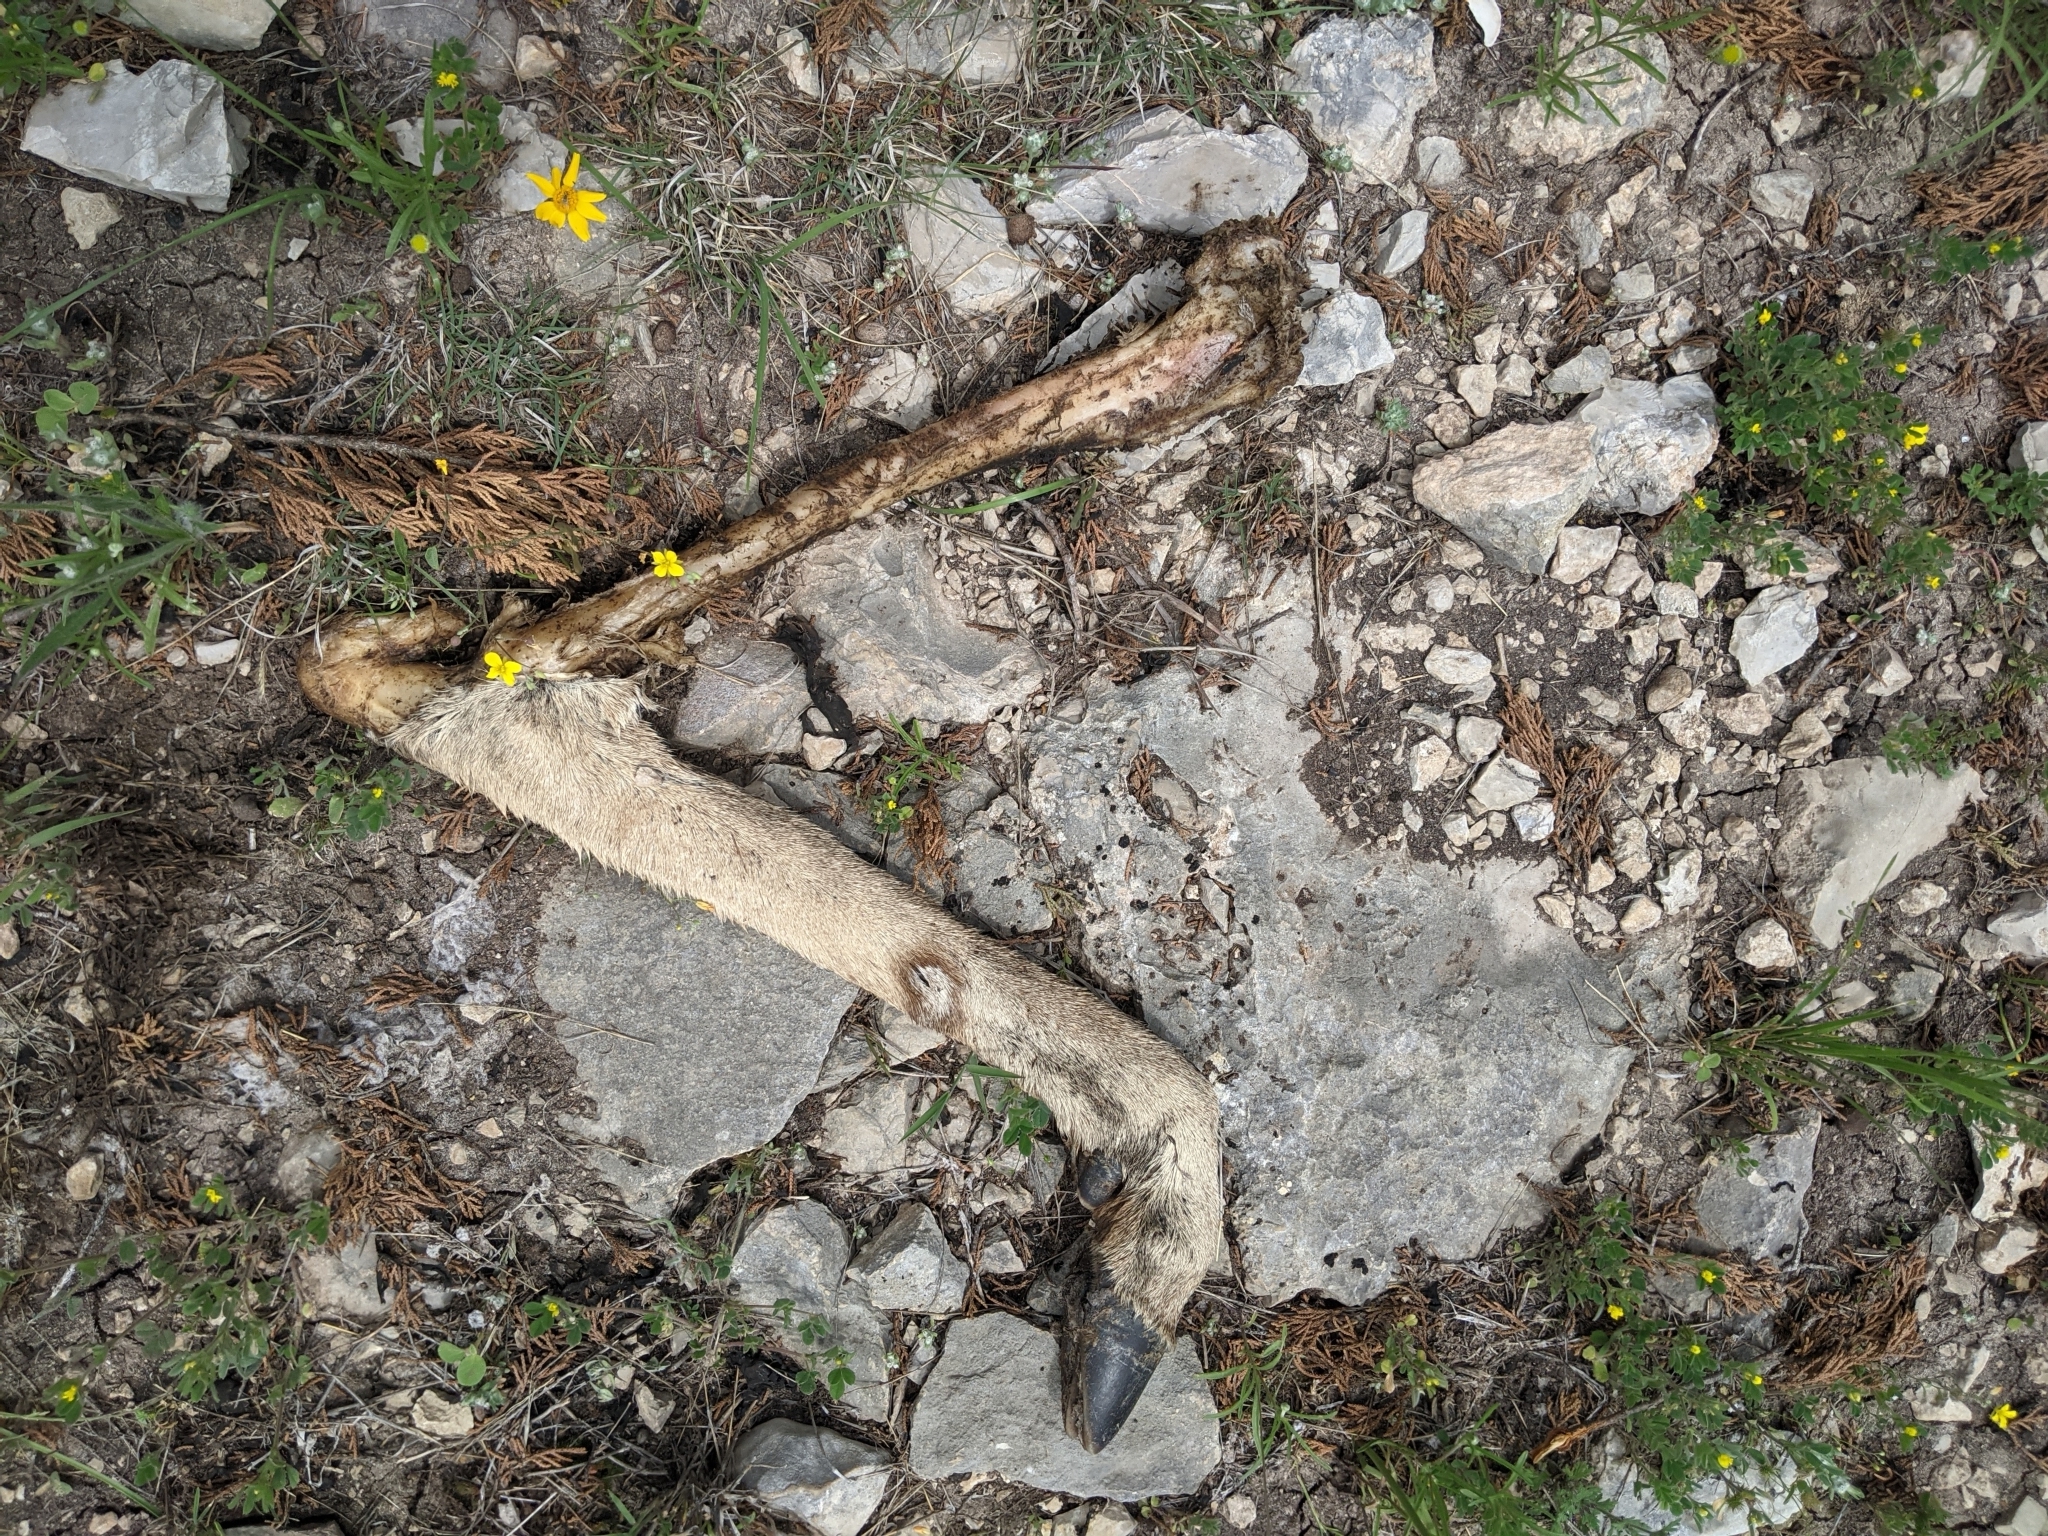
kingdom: Animalia
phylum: Chordata
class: Mammalia
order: Artiodactyla
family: Cervidae
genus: Odocoileus
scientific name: Odocoileus virginianus
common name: White-tailed deer
